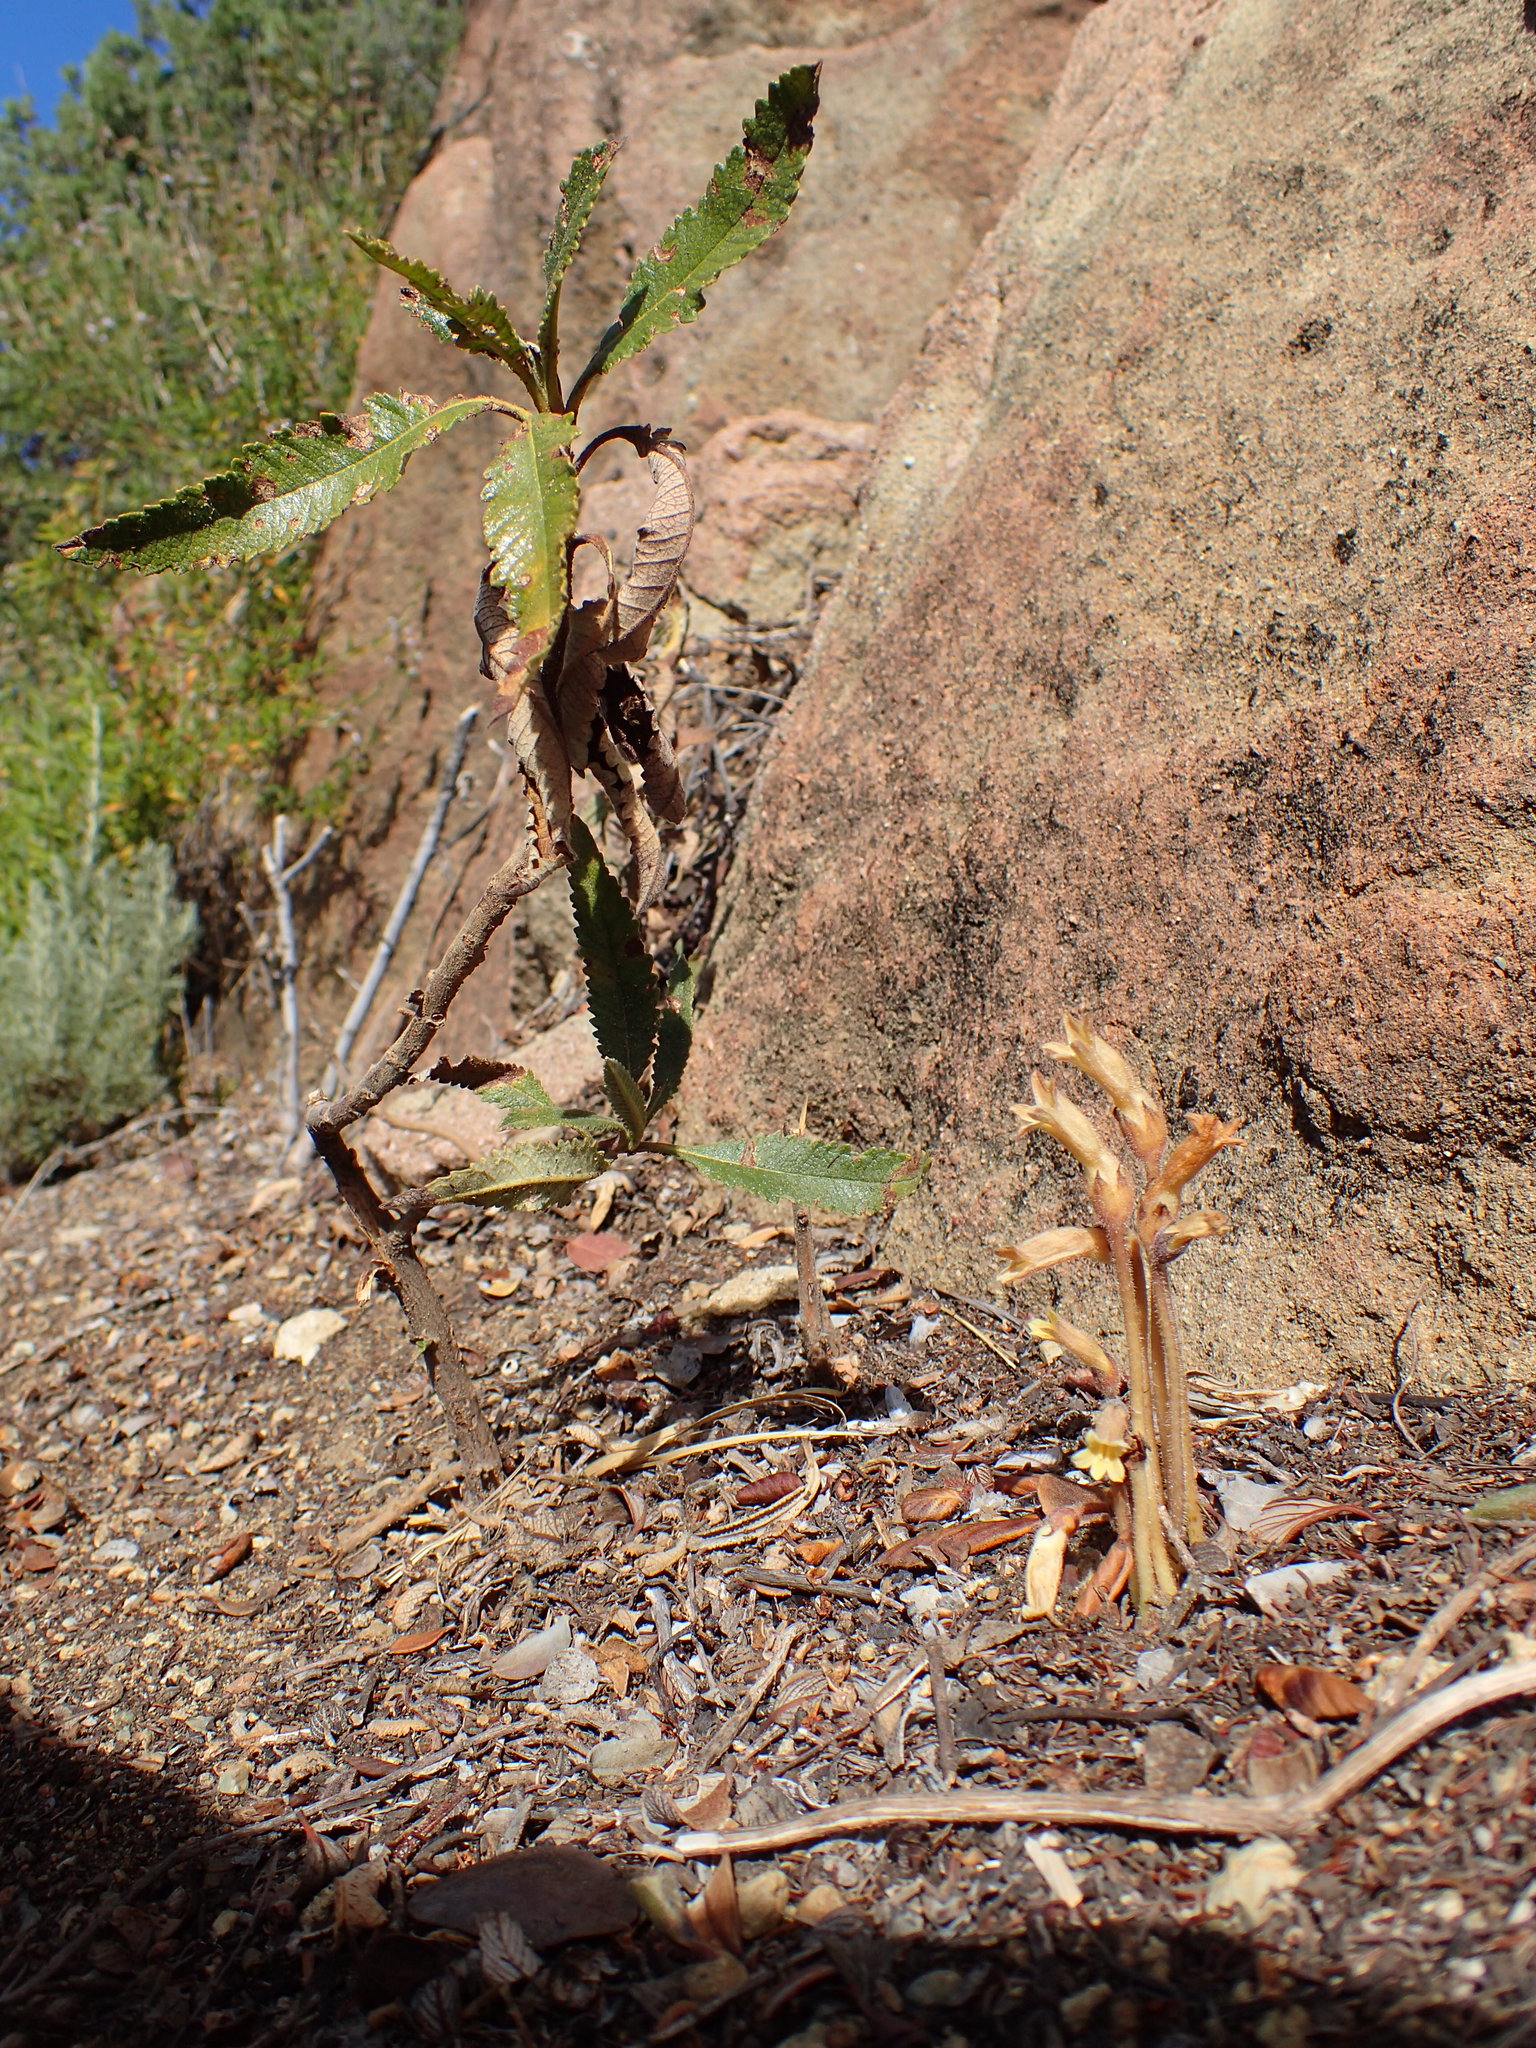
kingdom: Plantae
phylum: Tracheophyta
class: Magnoliopsida
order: Lamiales
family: Orobanchaceae
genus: Aphyllon
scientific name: Aphyllon franciscanum
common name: San francisco broomrape
